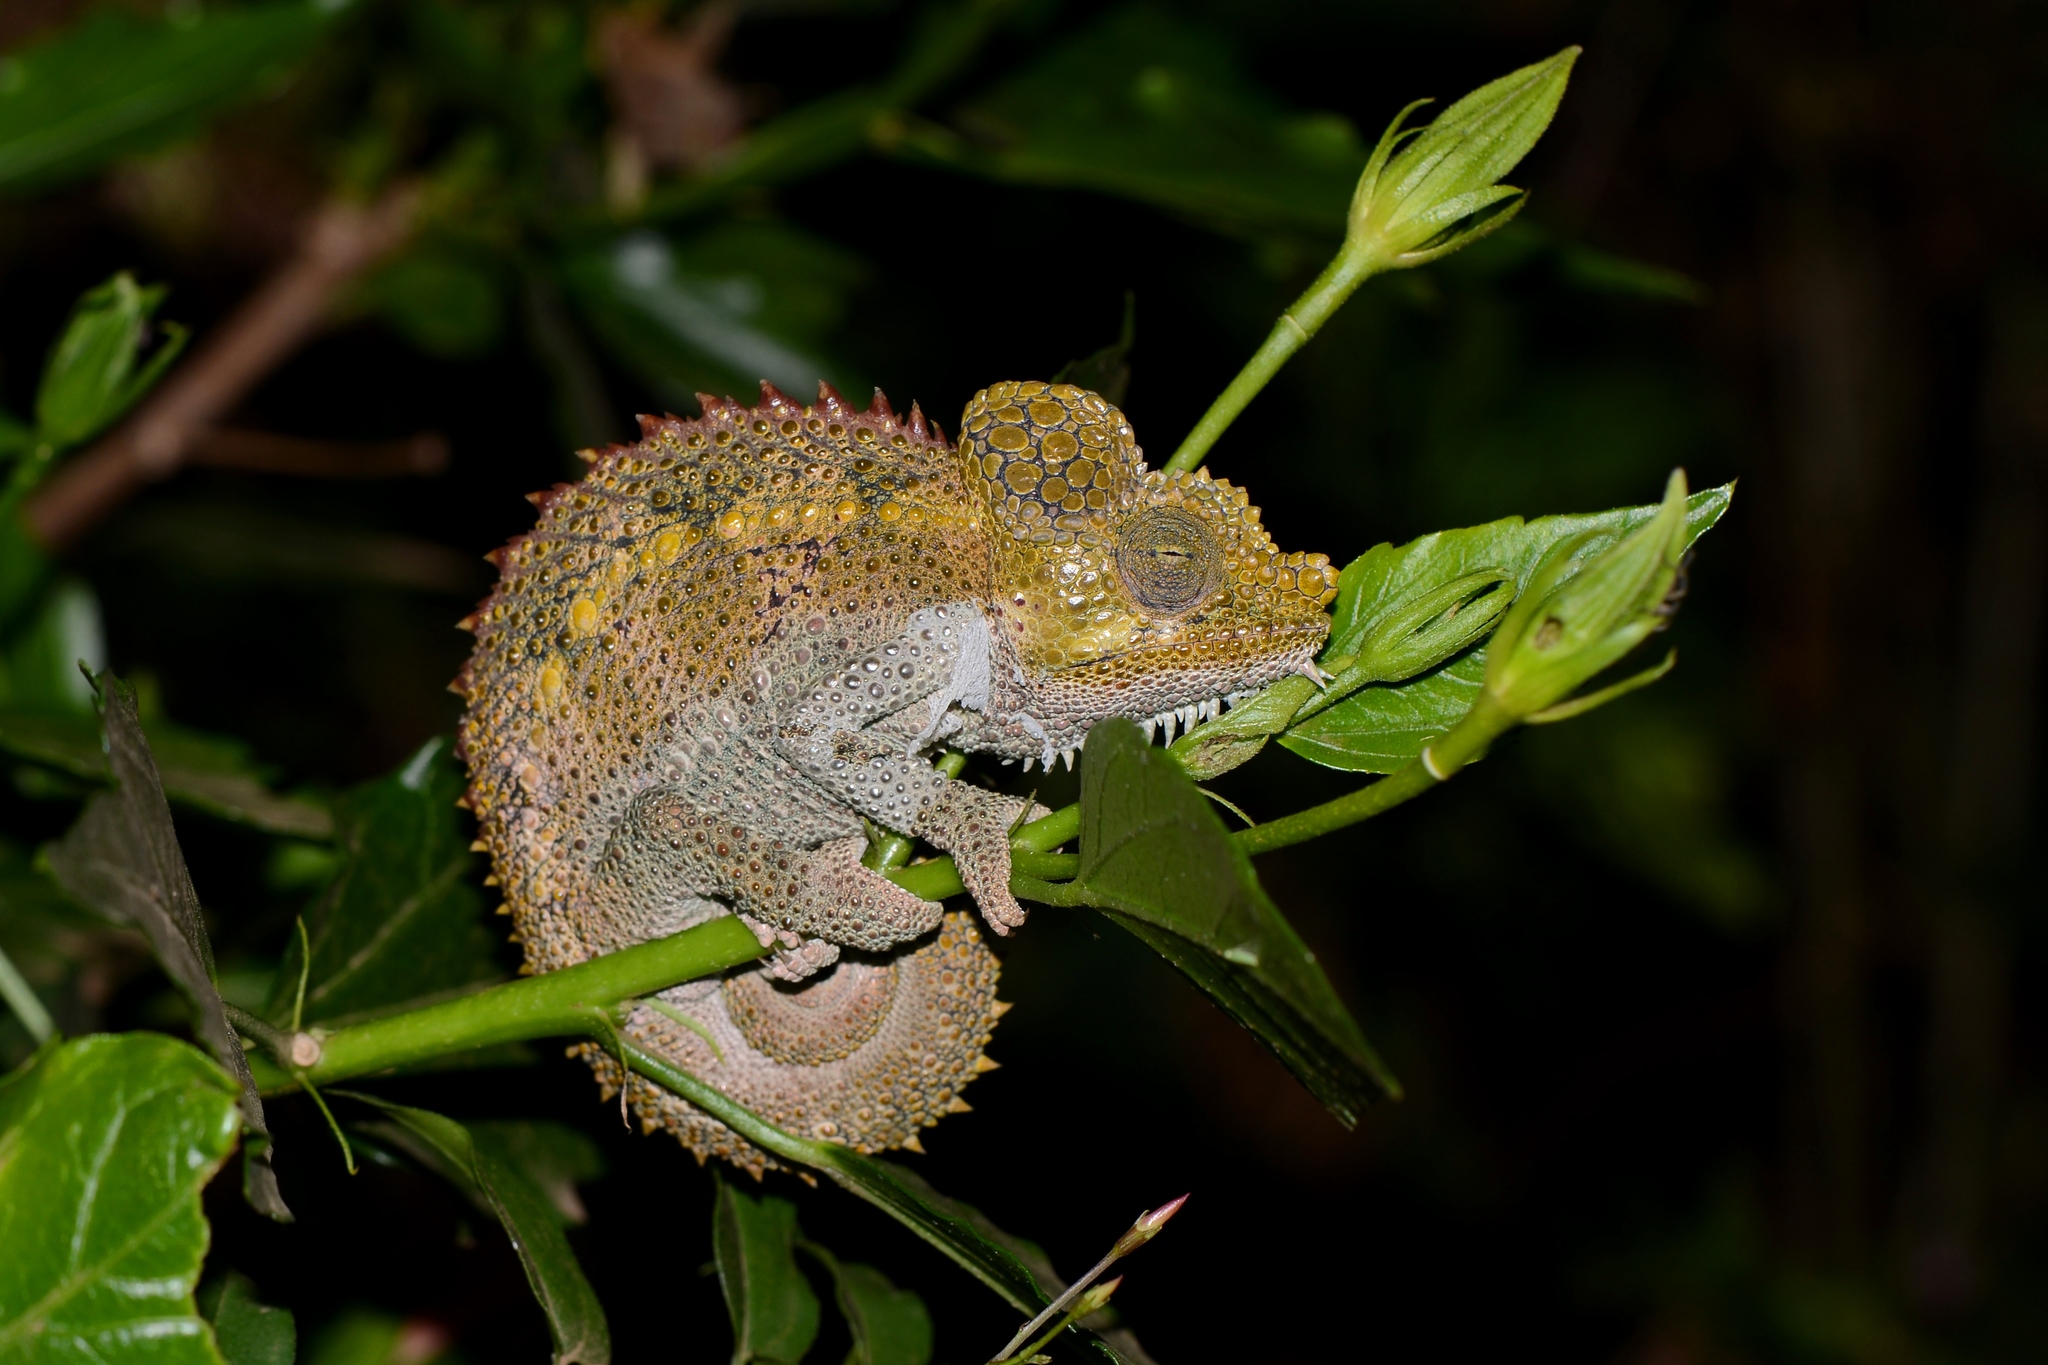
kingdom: Animalia
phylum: Chordata
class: Squamata
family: Chamaeleonidae
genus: Trioceros
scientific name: Trioceros hoehnelii
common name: High-casqued chameleon
